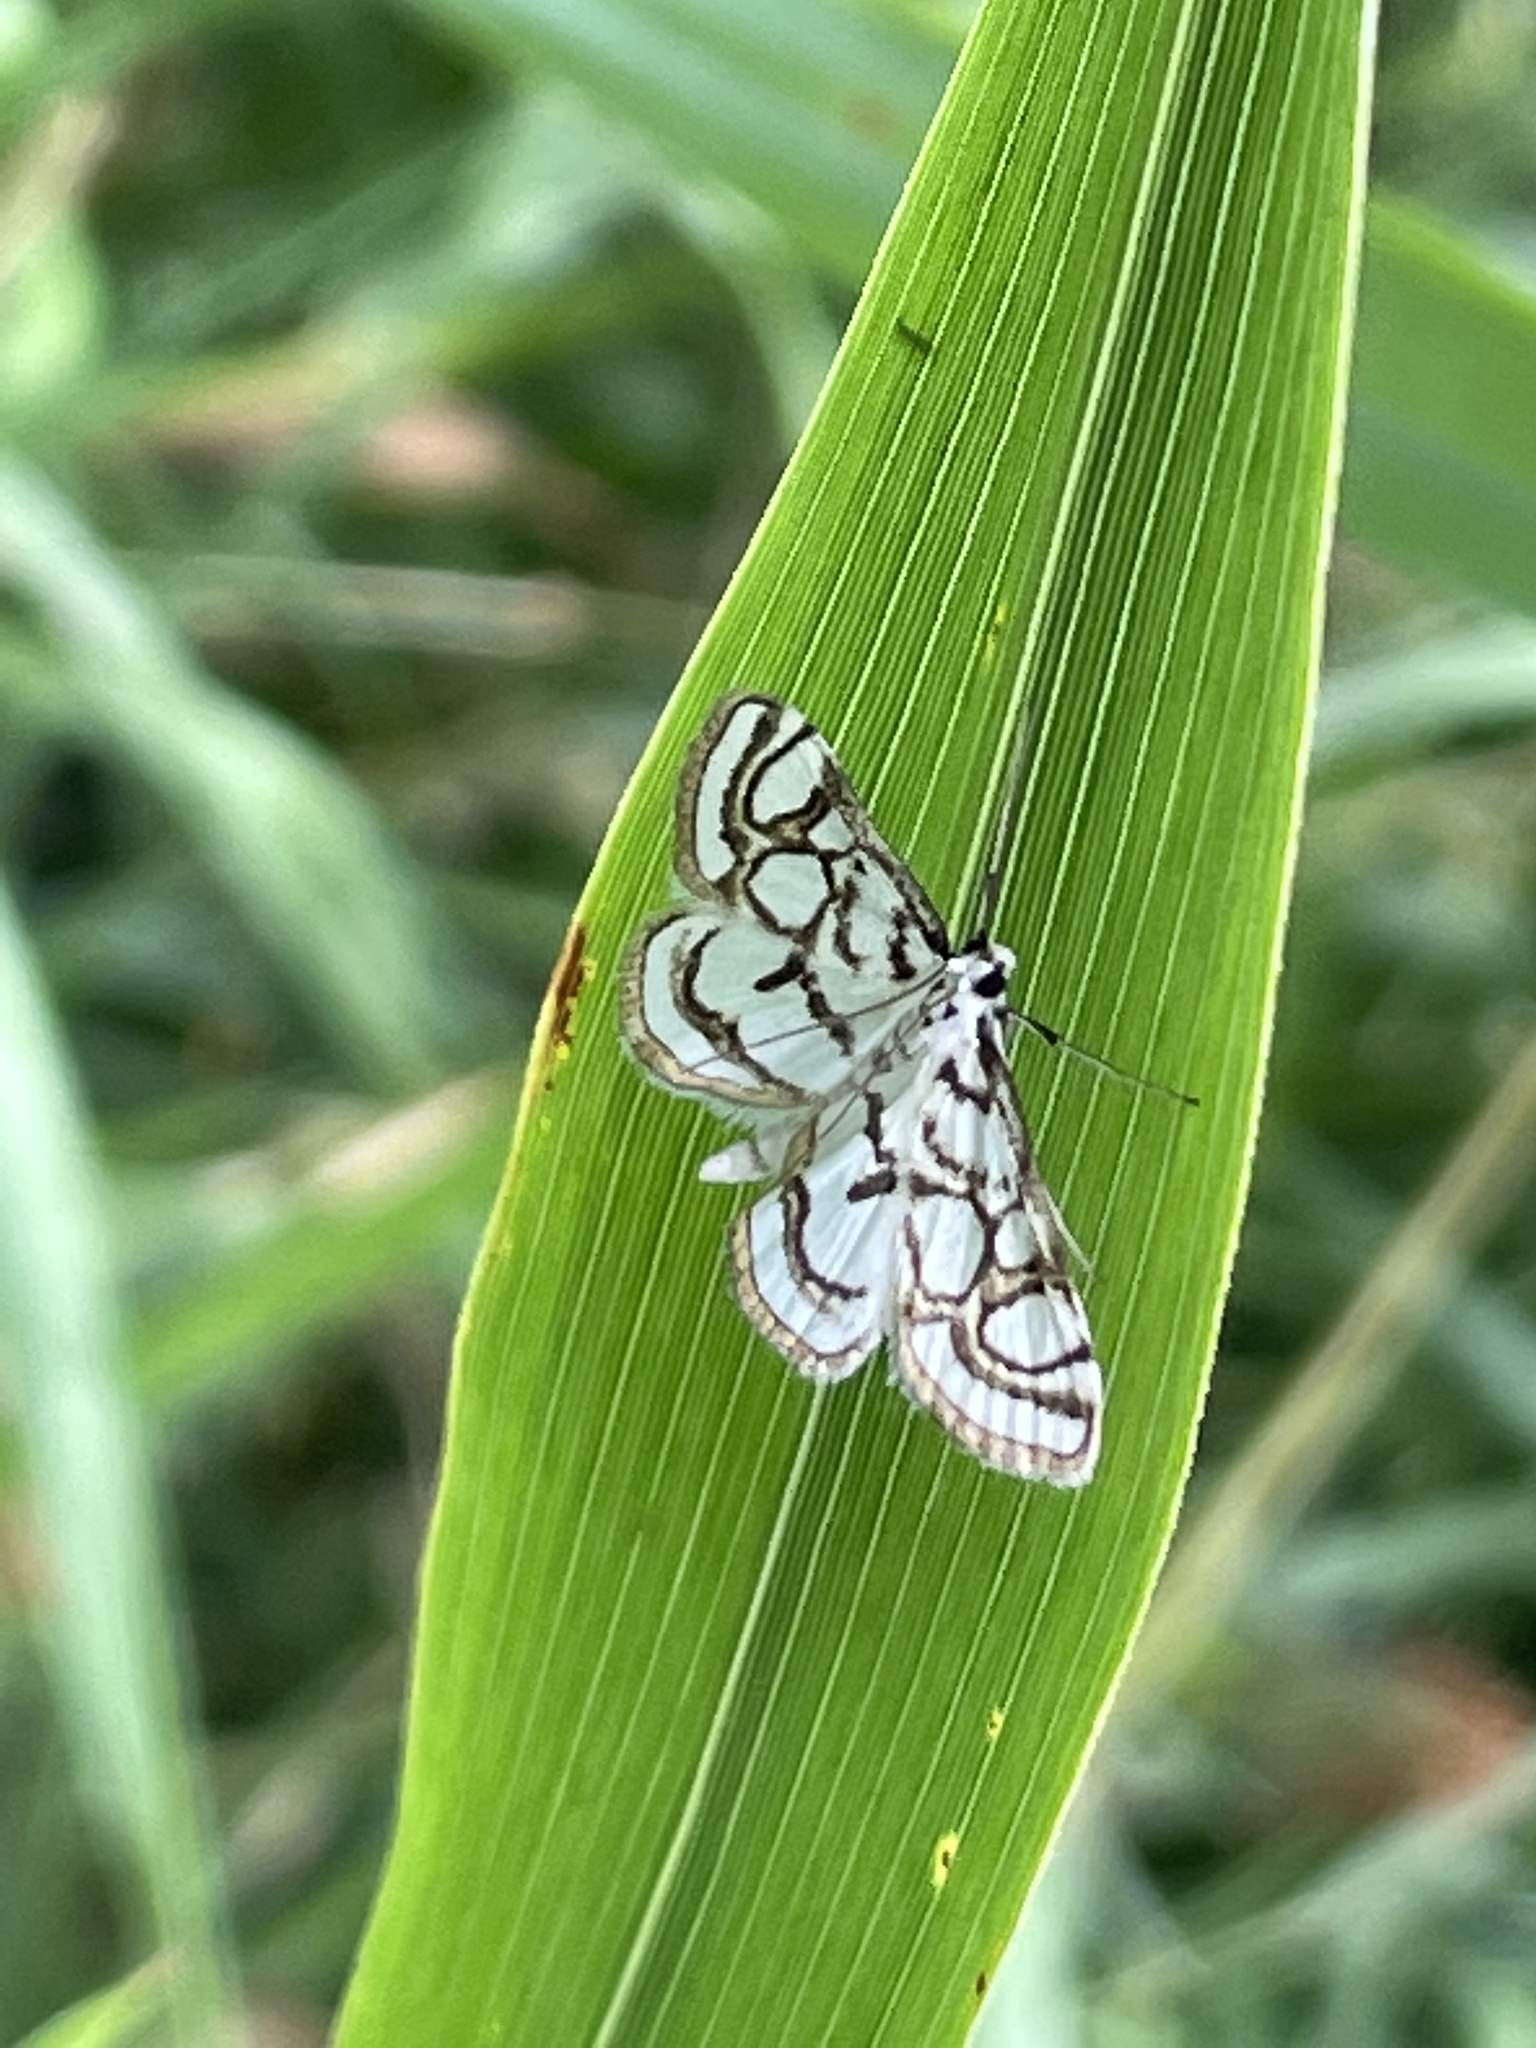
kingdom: Animalia
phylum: Arthropoda
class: Insecta
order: Lepidoptera
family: Crambidae
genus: Nymphula
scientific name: Nymphula nitidulata
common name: Beautiful china mark
